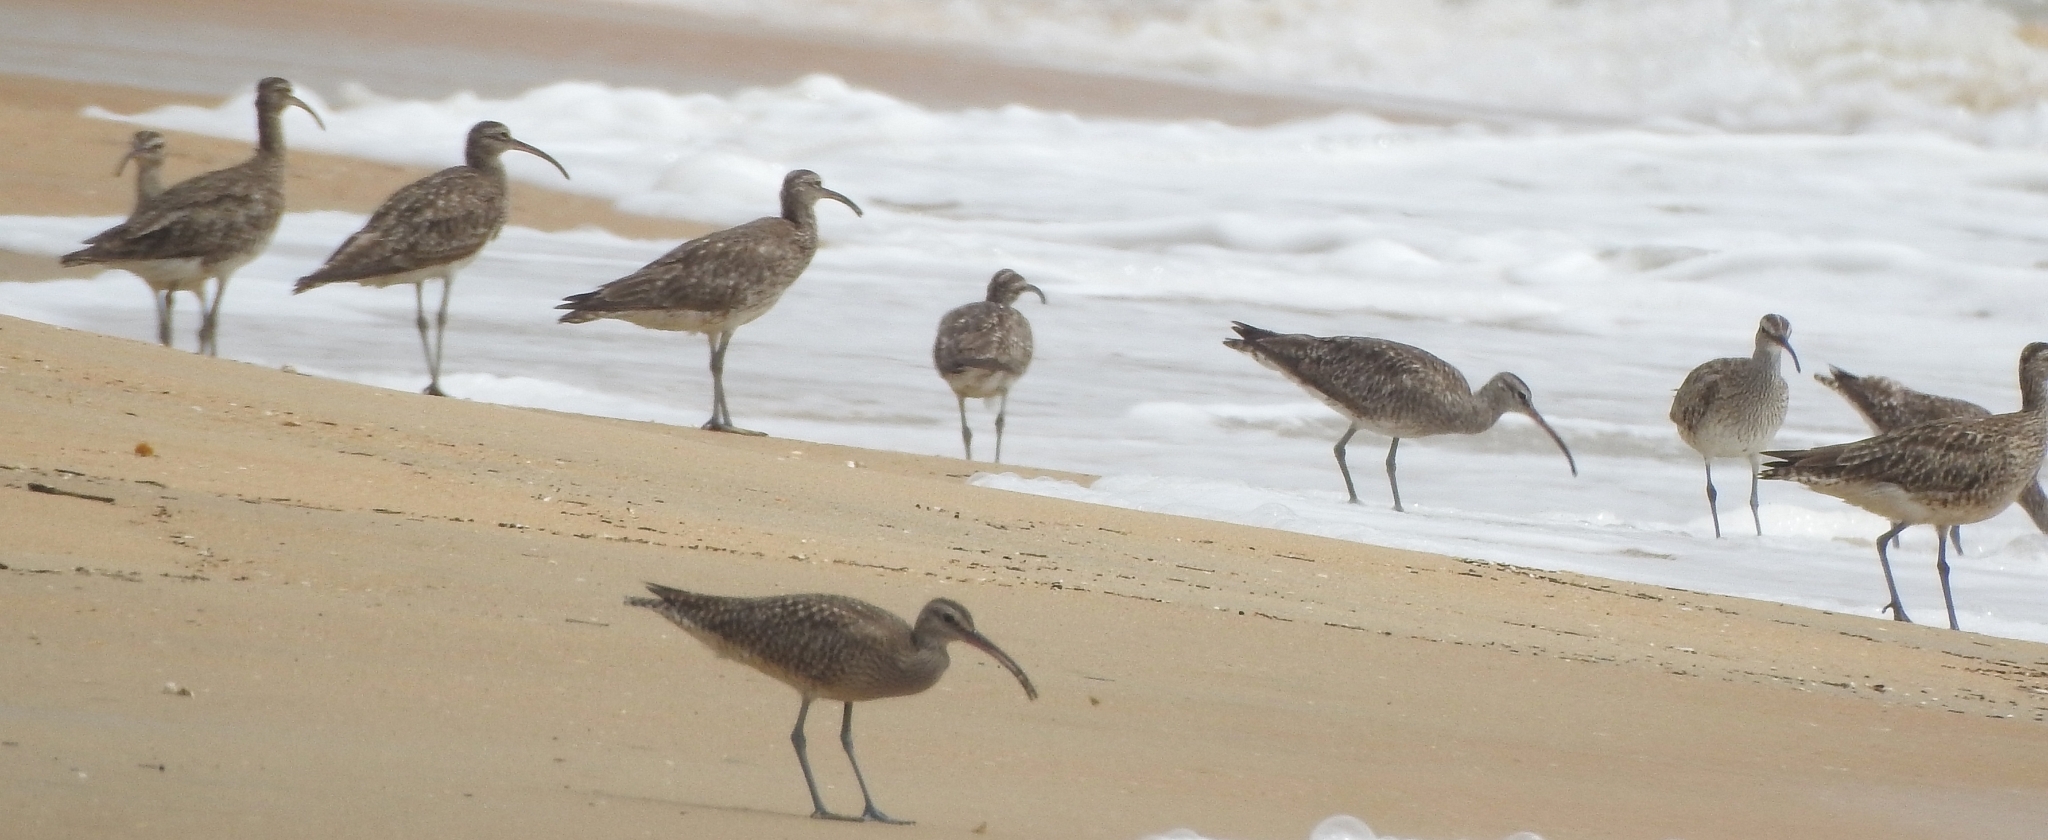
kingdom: Animalia
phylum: Chordata
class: Aves
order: Charadriiformes
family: Scolopacidae
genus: Numenius
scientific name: Numenius phaeopus
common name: Whimbrel
